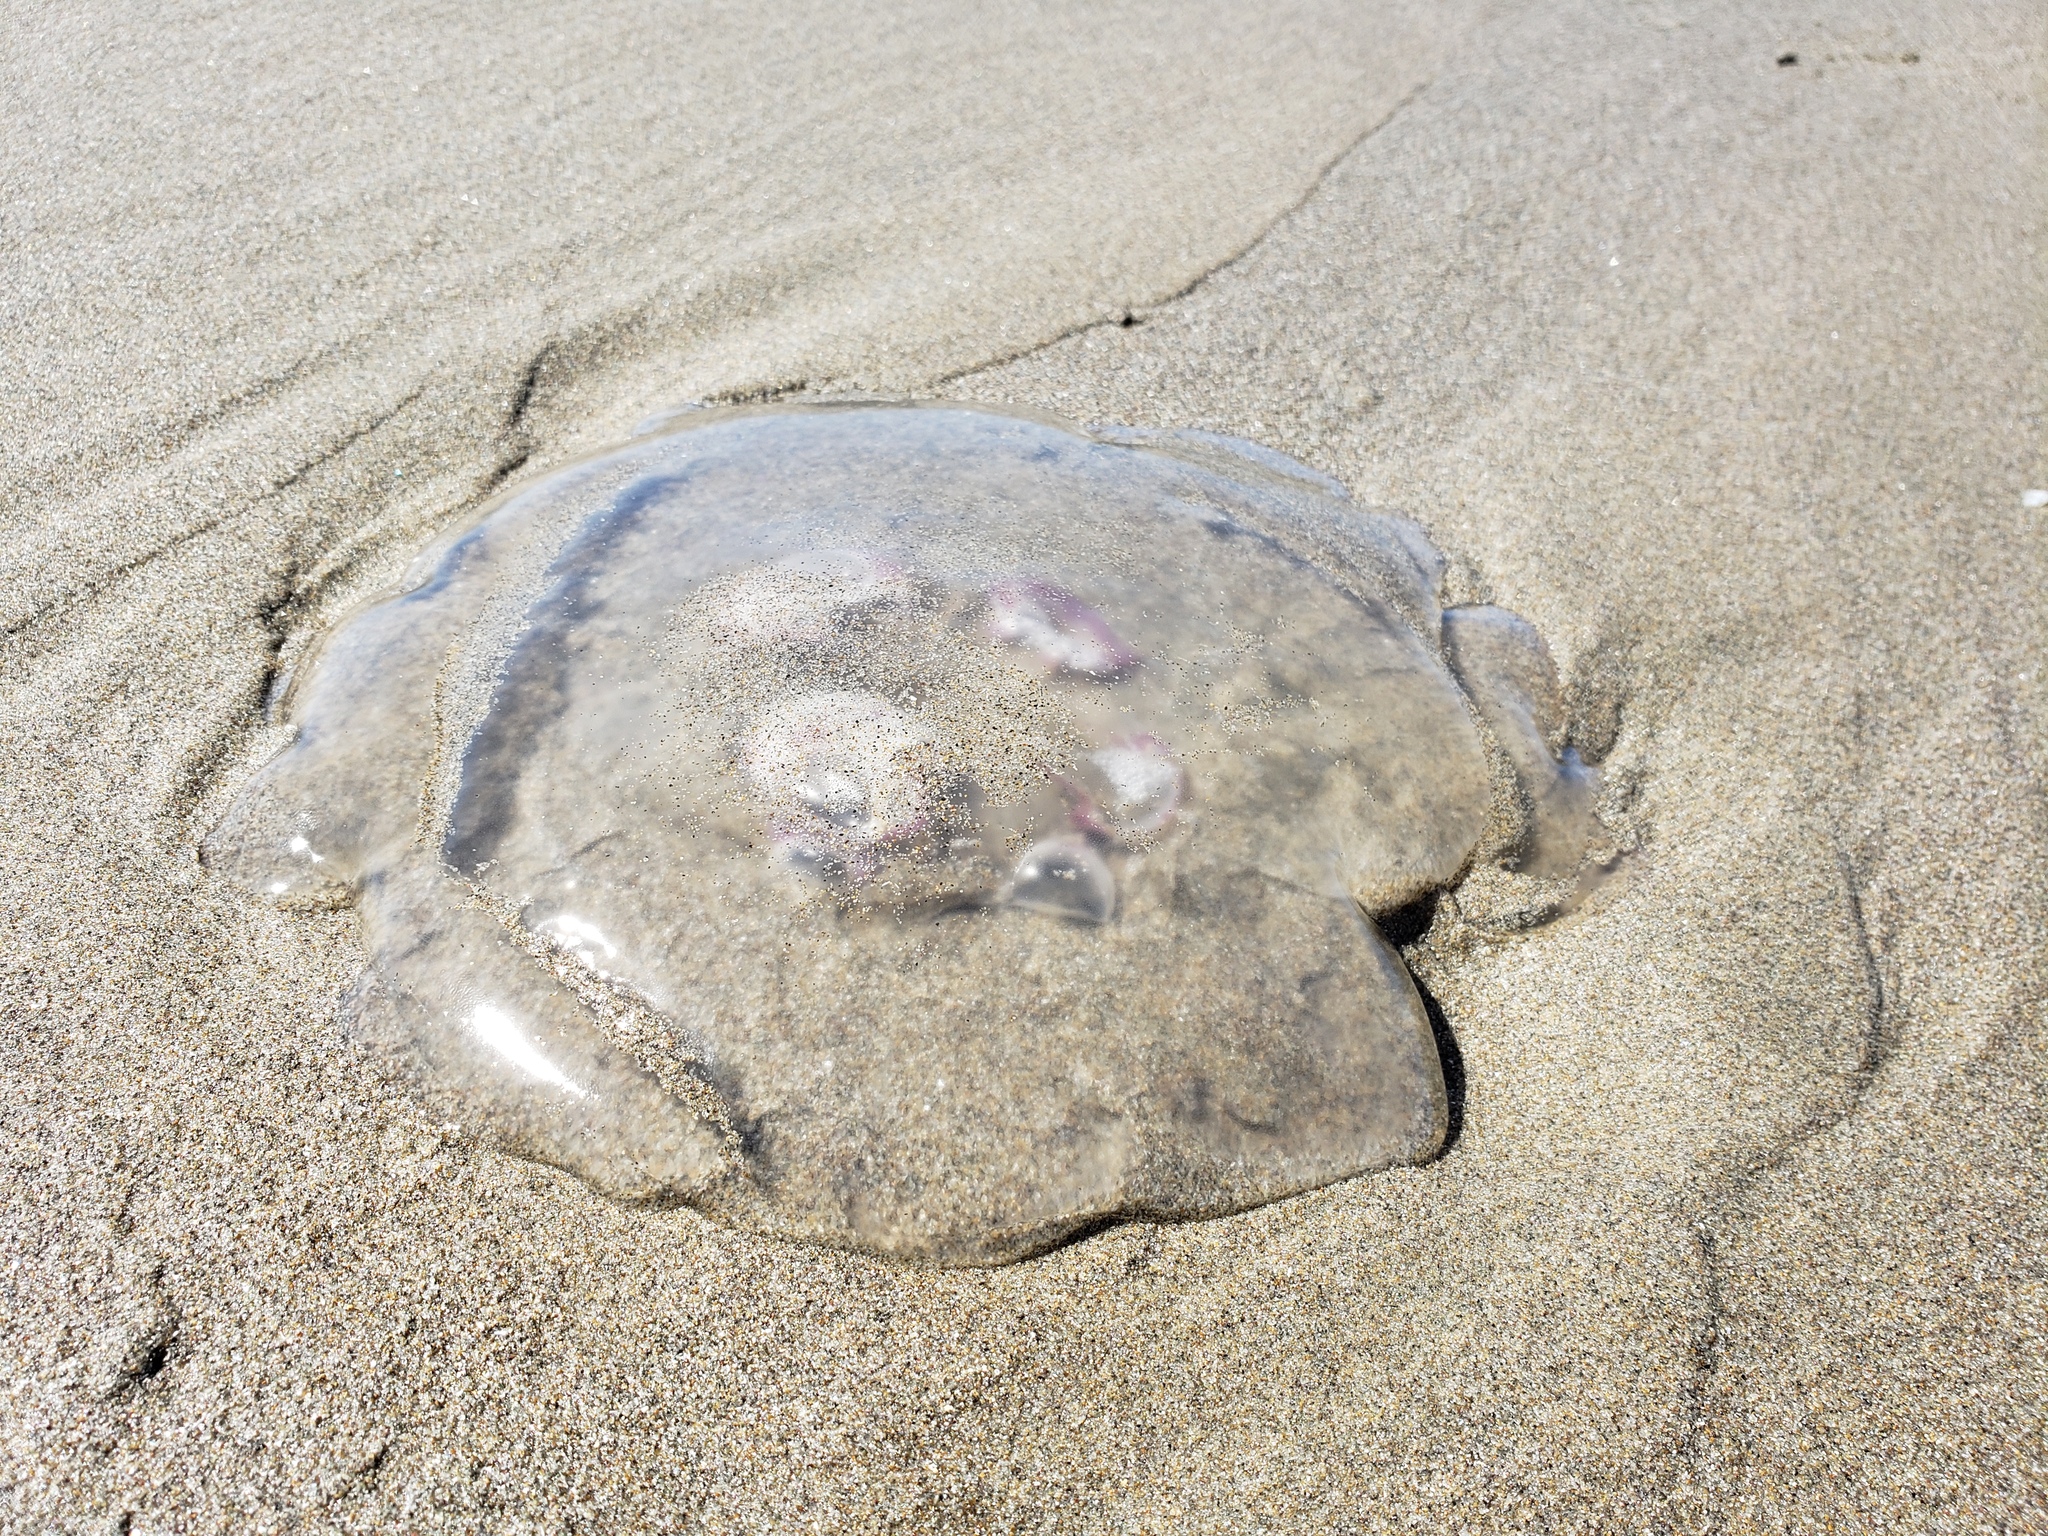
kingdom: Animalia
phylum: Cnidaria
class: Scyphozoa
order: Semaeostomeae
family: Ulmaridae
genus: Aurelia
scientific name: Aurelia labiata
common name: Pacific moon jelly
